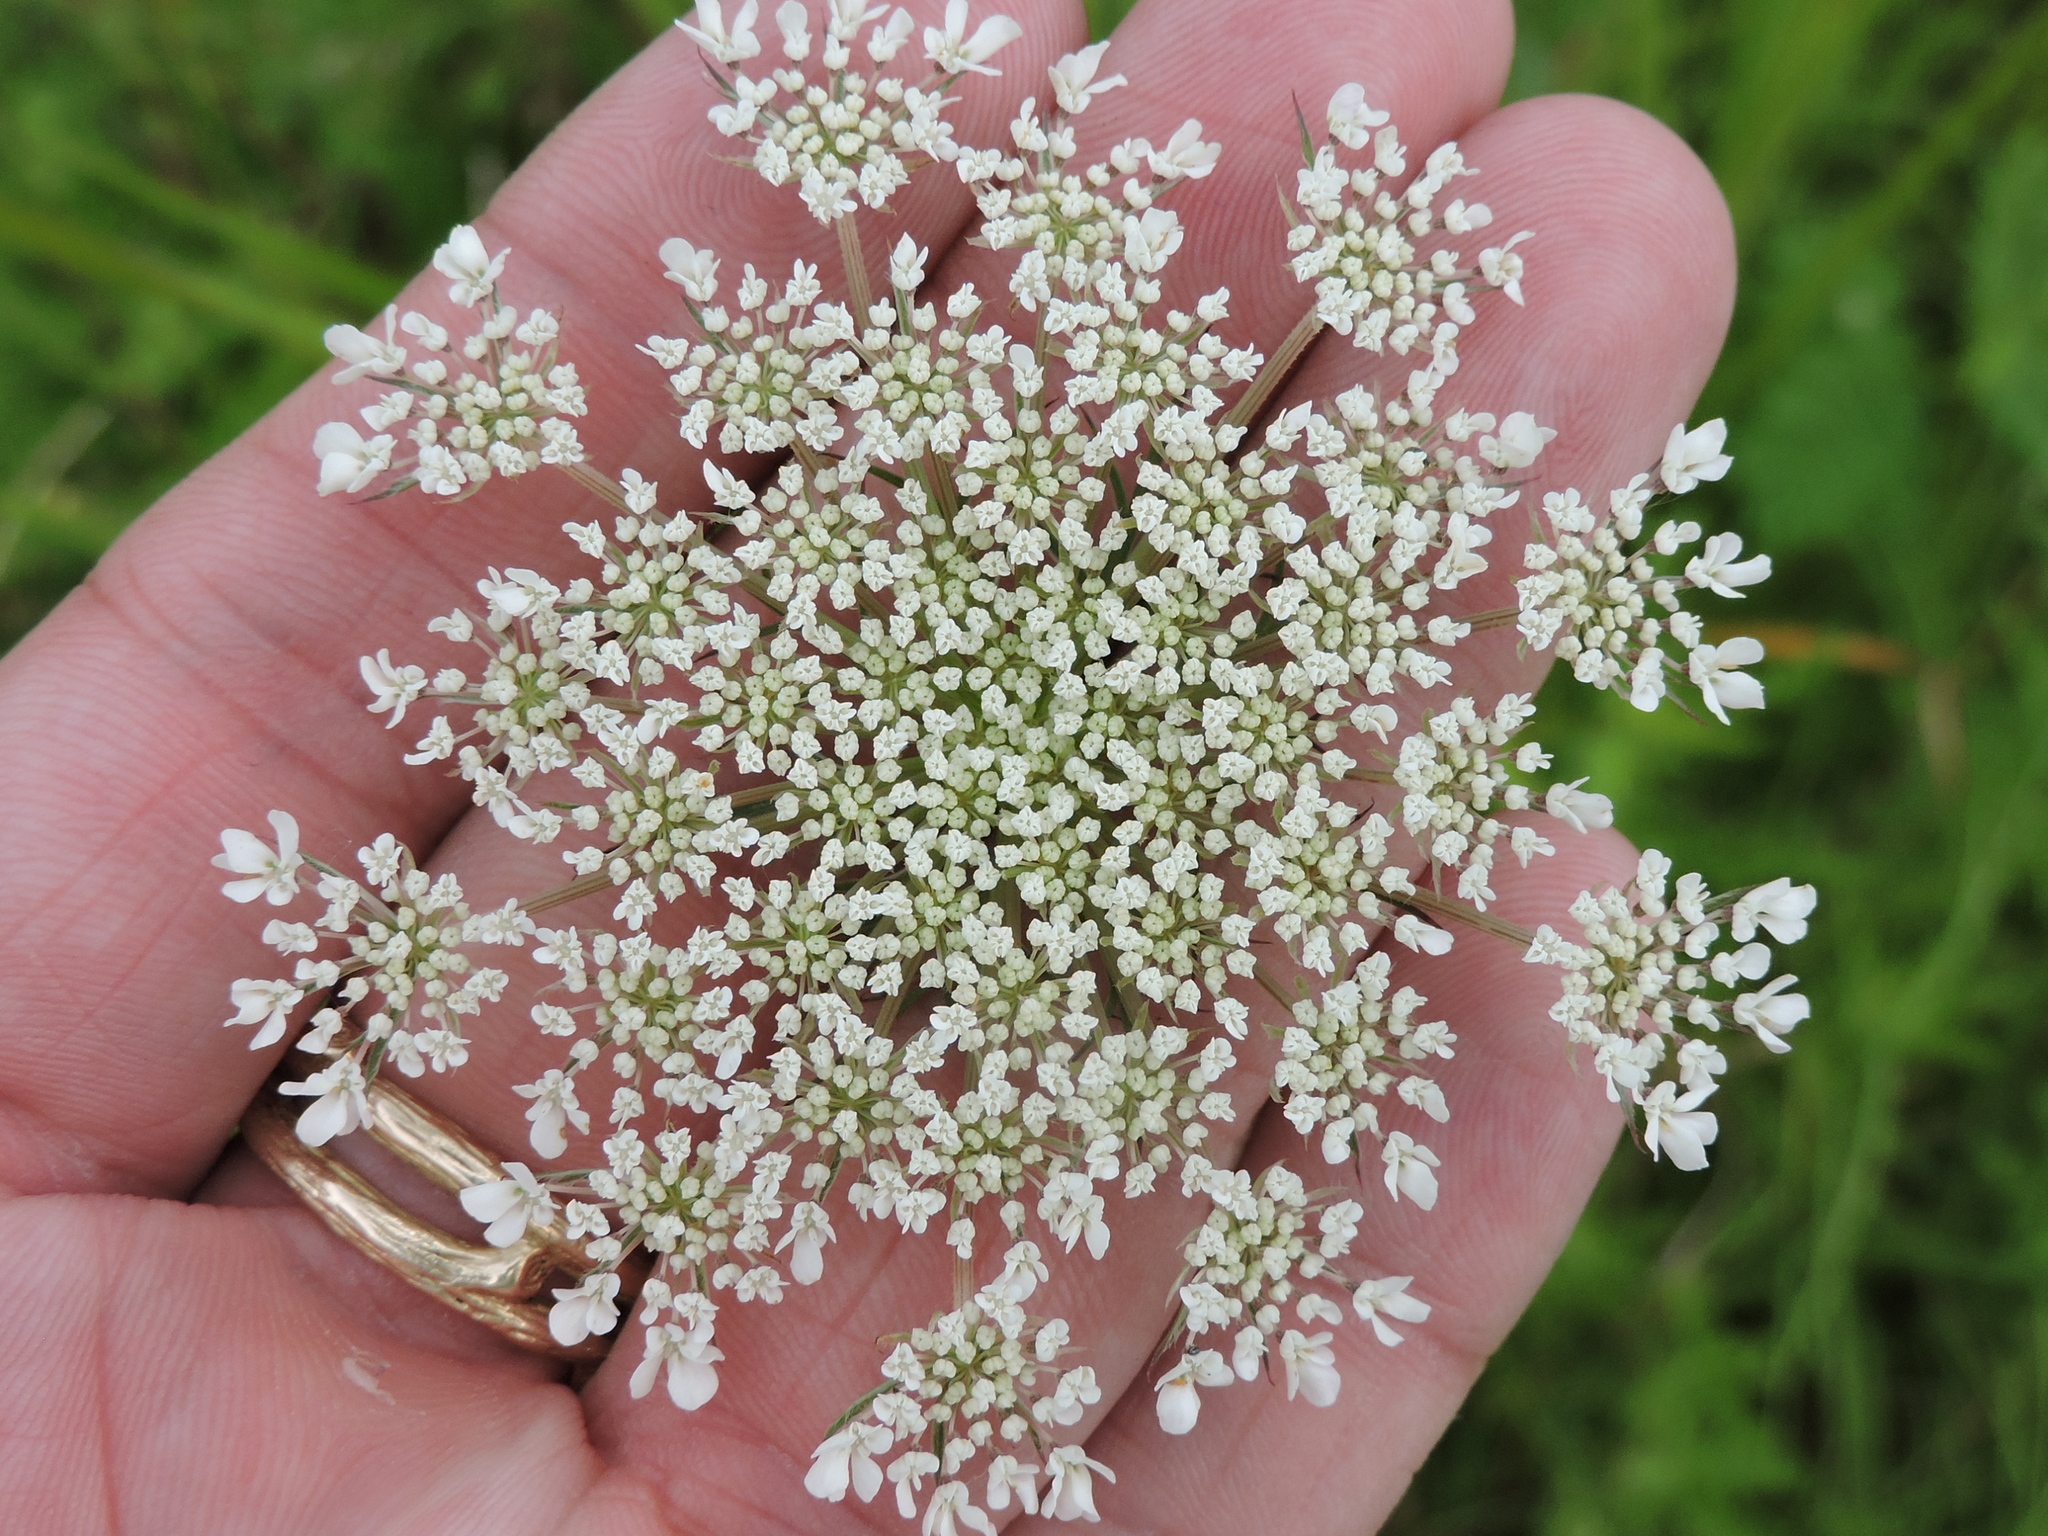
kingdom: Plantae
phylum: Tracheophyta
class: Magnoliopsida
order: Apiales
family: Apiaceae
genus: Daucus
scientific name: Daucus carota
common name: Wild carrot
